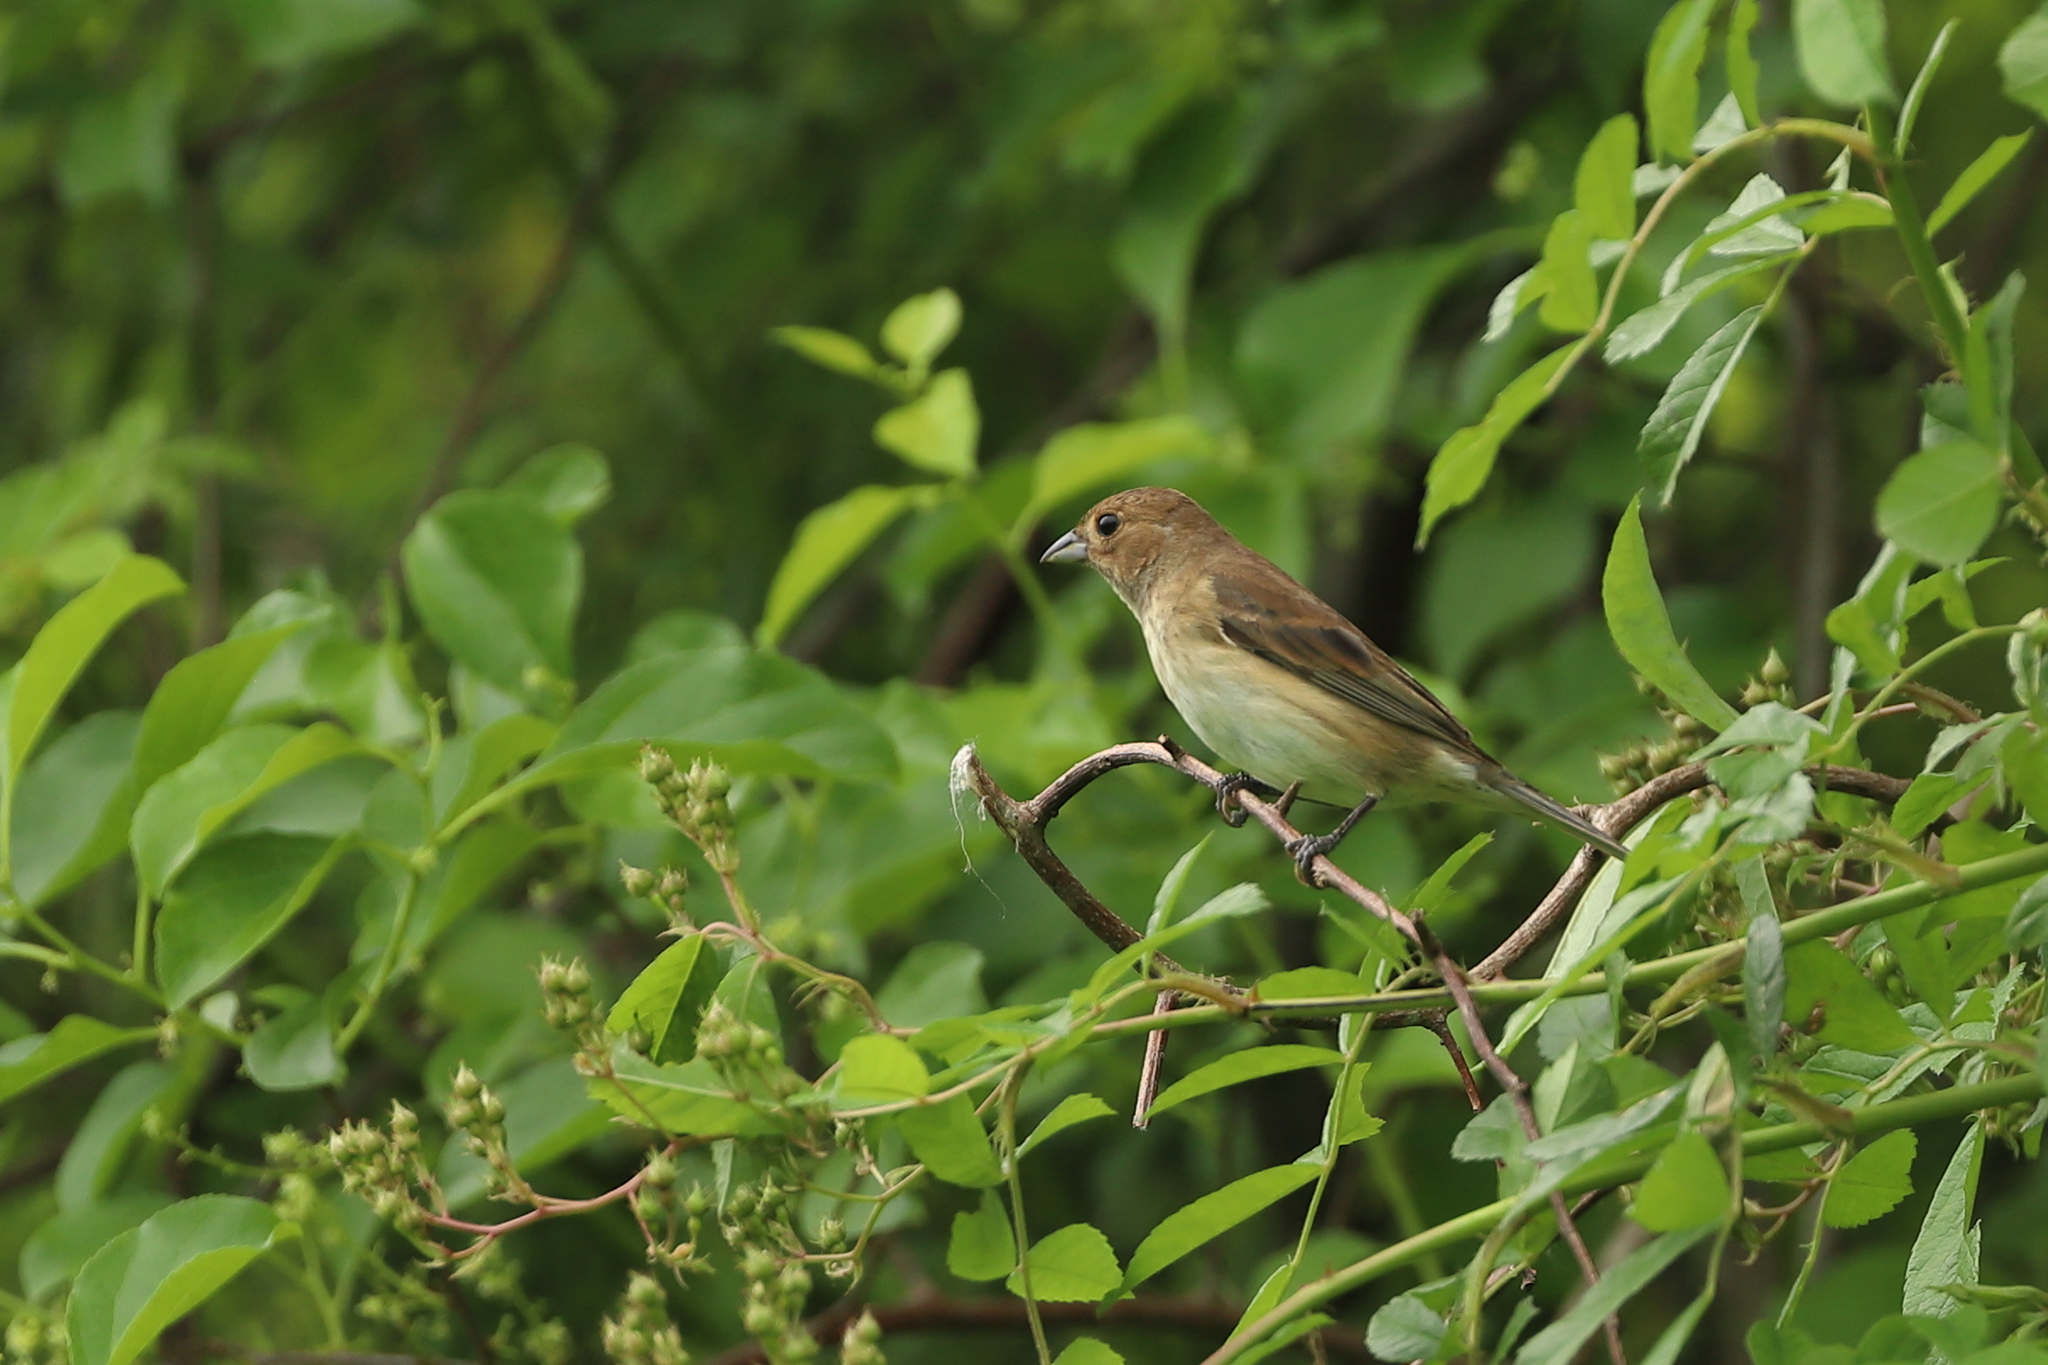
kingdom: Animalia
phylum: Chordata
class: Aves
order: Passeriformes
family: Cardinalidae
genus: Passerina
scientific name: Passerina cyanea
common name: Indigo bunting
